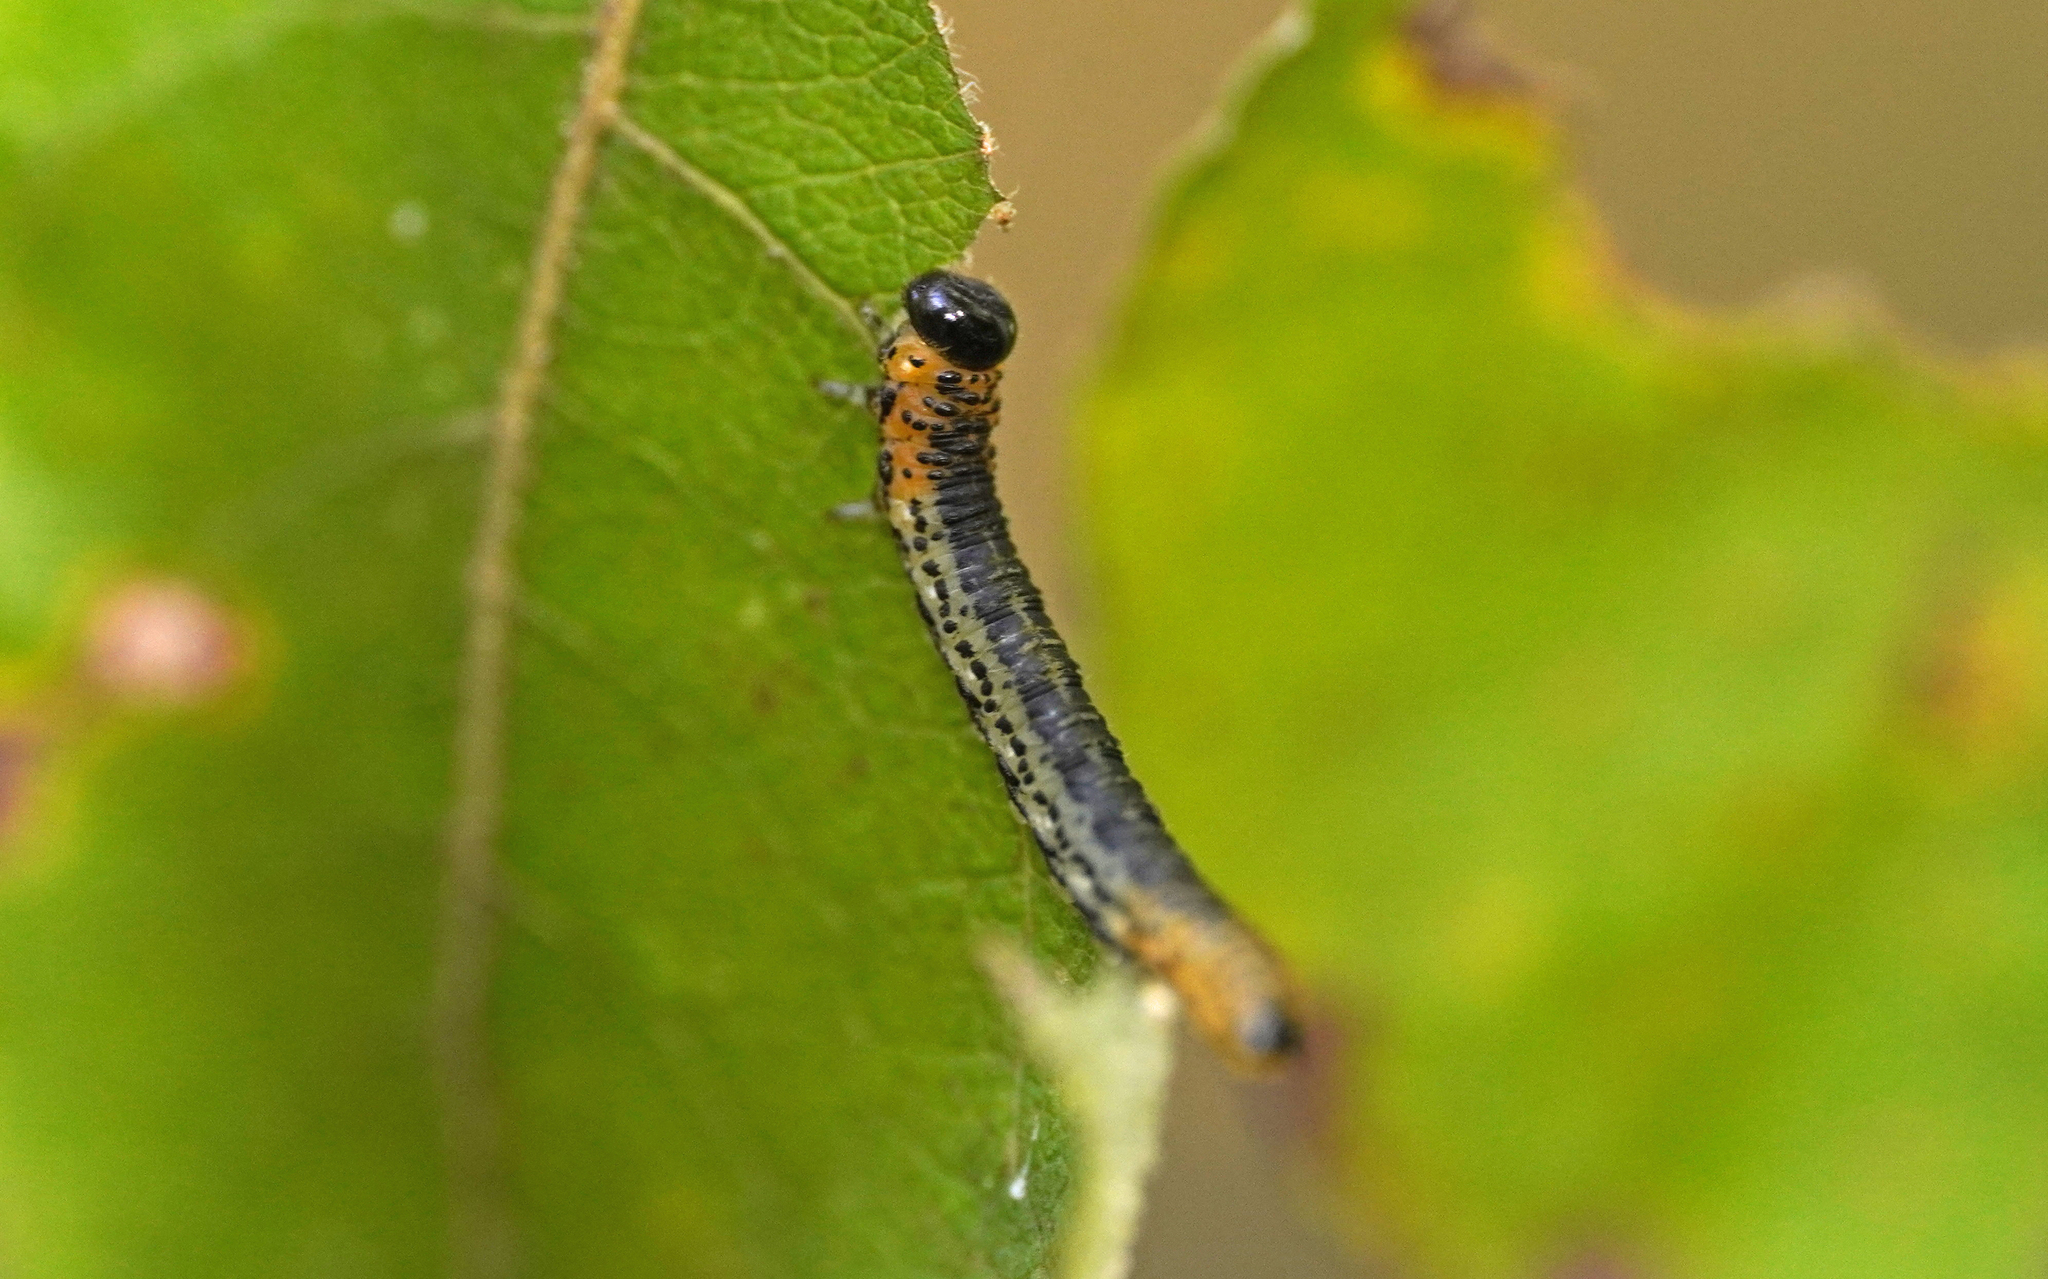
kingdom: Animalia
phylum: Arthropoda
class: Insecta
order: Hymenoptera
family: Tenthredinidae
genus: Nematus
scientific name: Nematus miliaris
